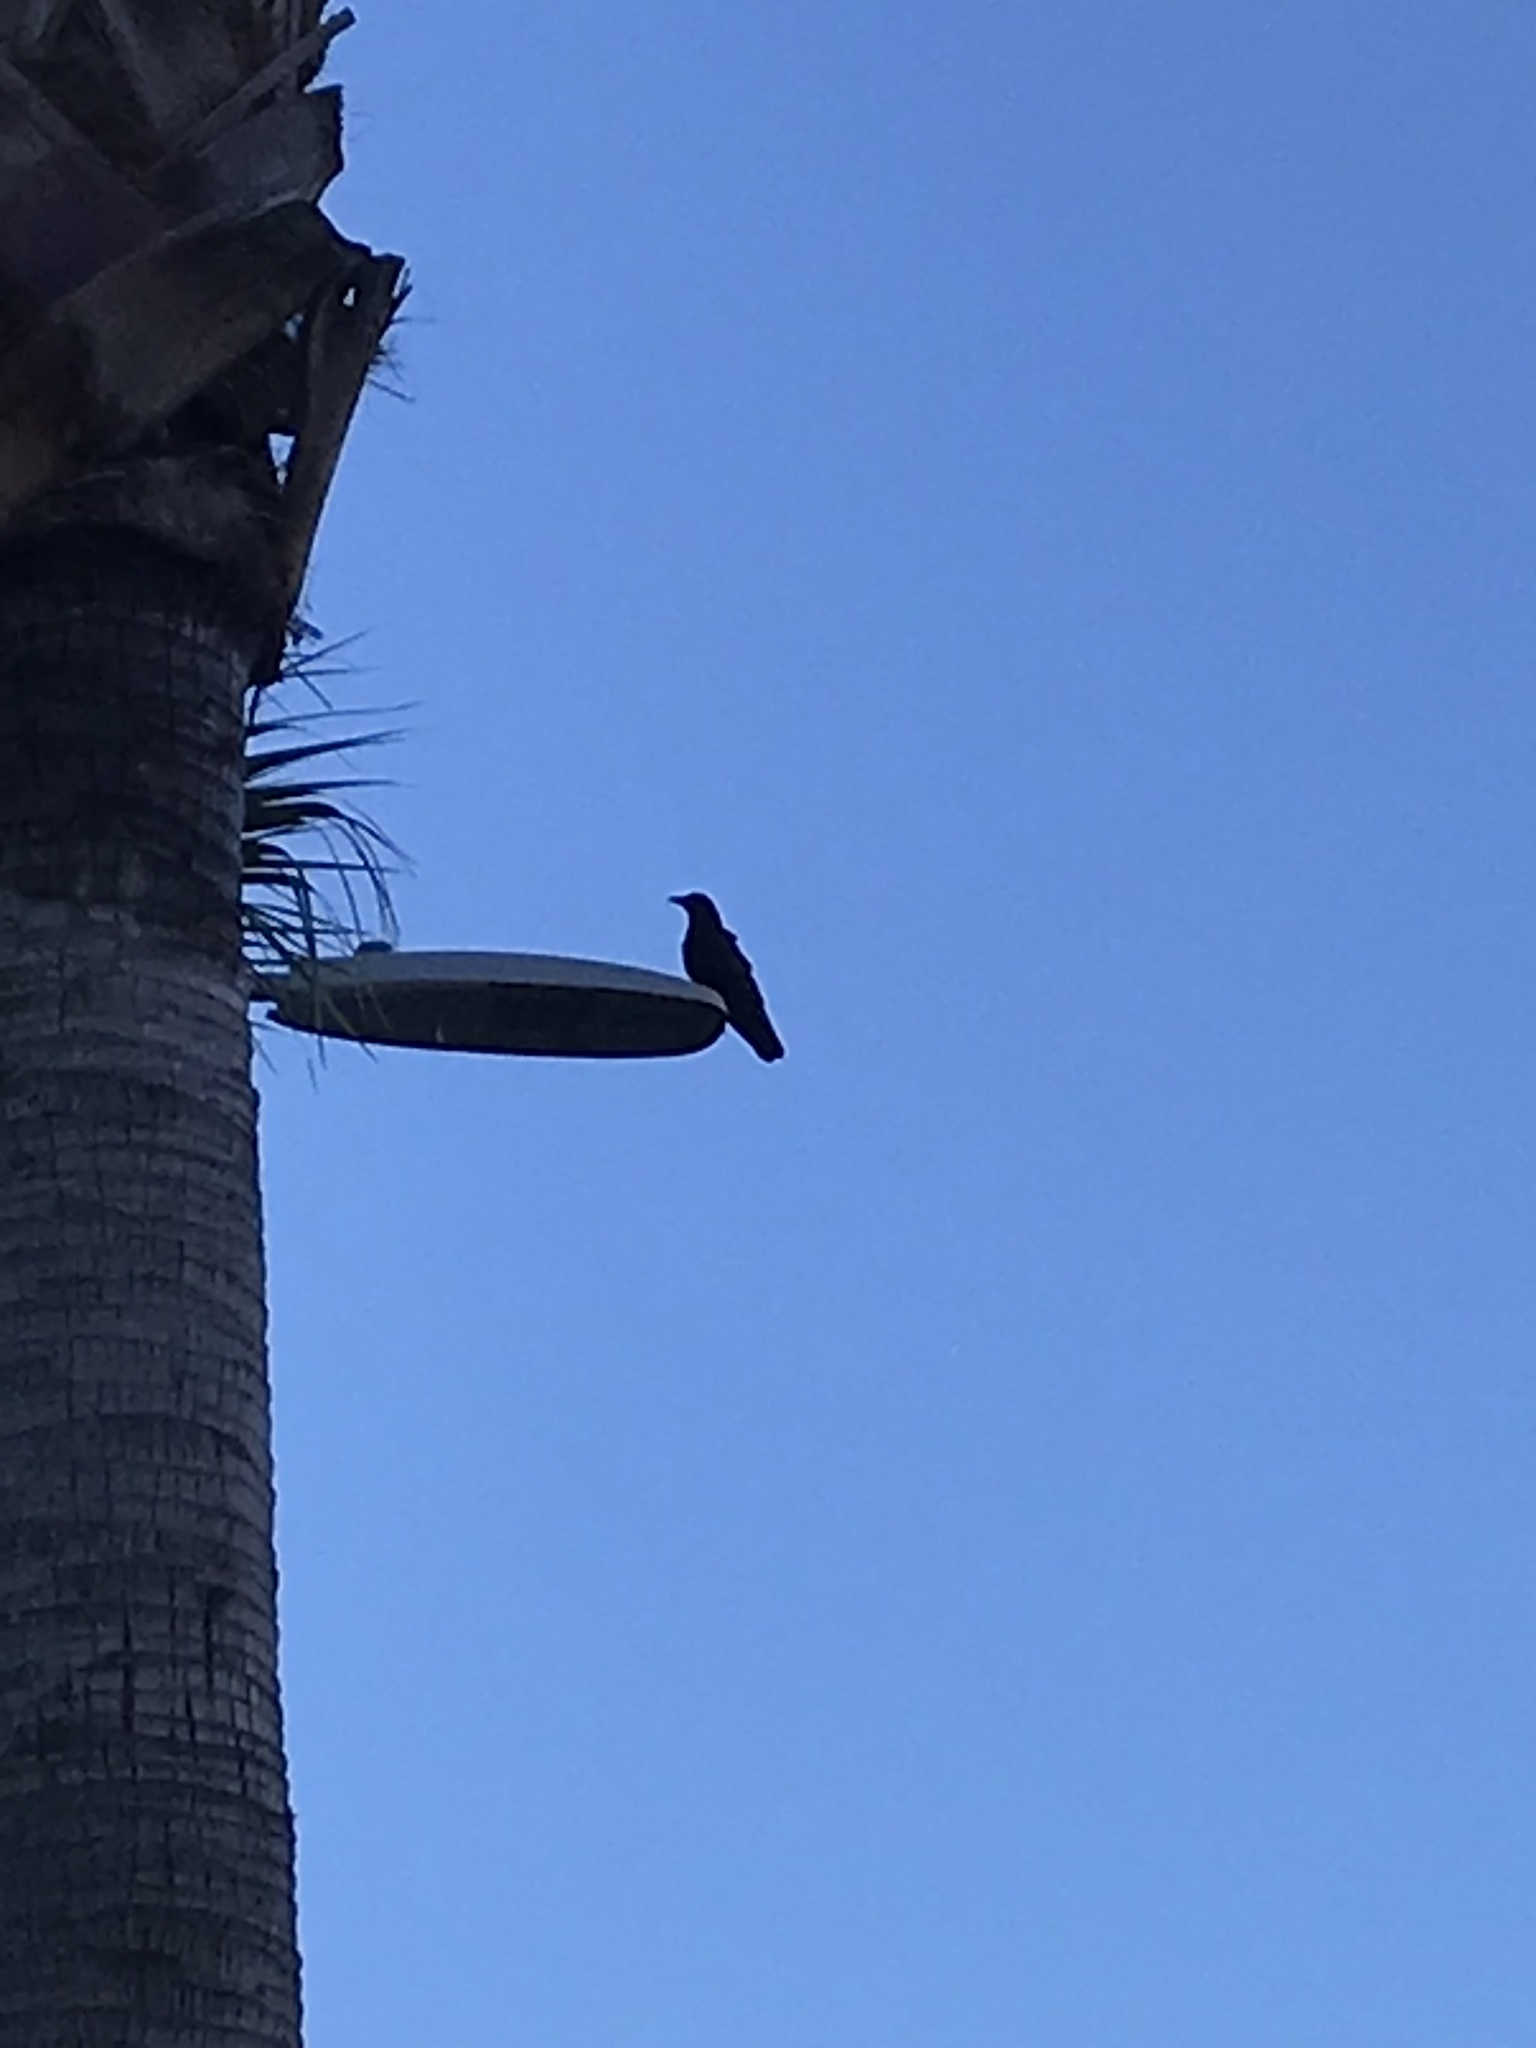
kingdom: Animalia
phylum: Chordata
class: Aves
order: Passeriformes
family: Corvidae
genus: Corvus
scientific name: Corvus brachyrhynchos
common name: American crow
